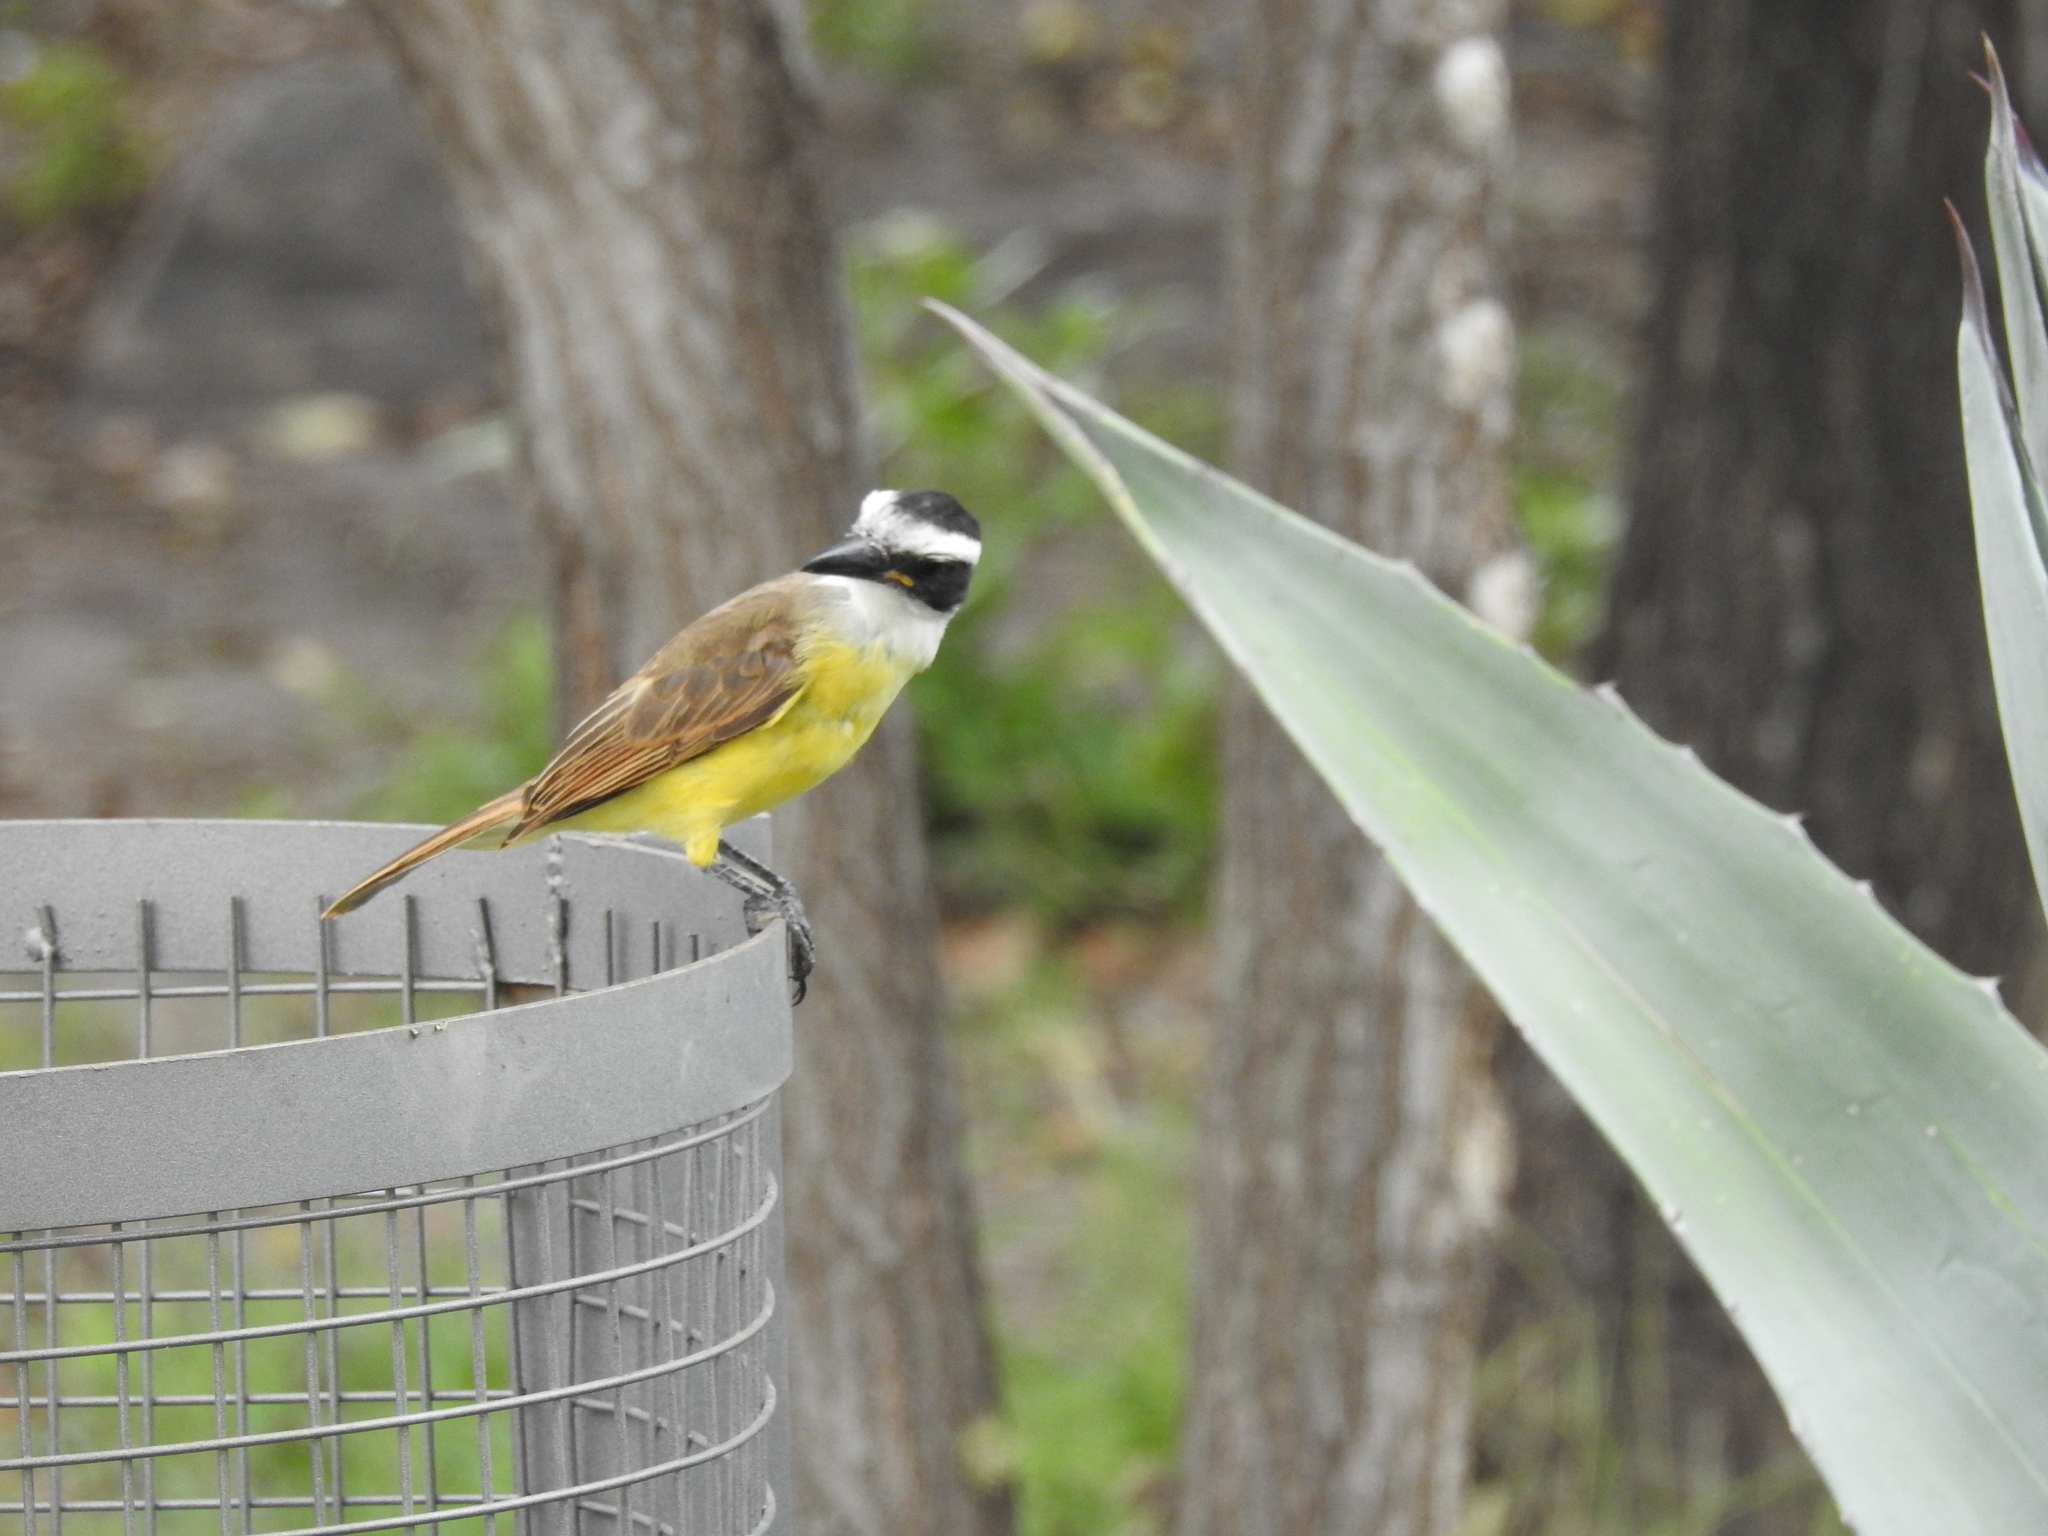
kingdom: Animalia
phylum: Chordata
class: Aves
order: Passeriformes
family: Tyrannidae
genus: Pitangus
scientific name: Pitangus sulphuratus
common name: Great kiskadee
